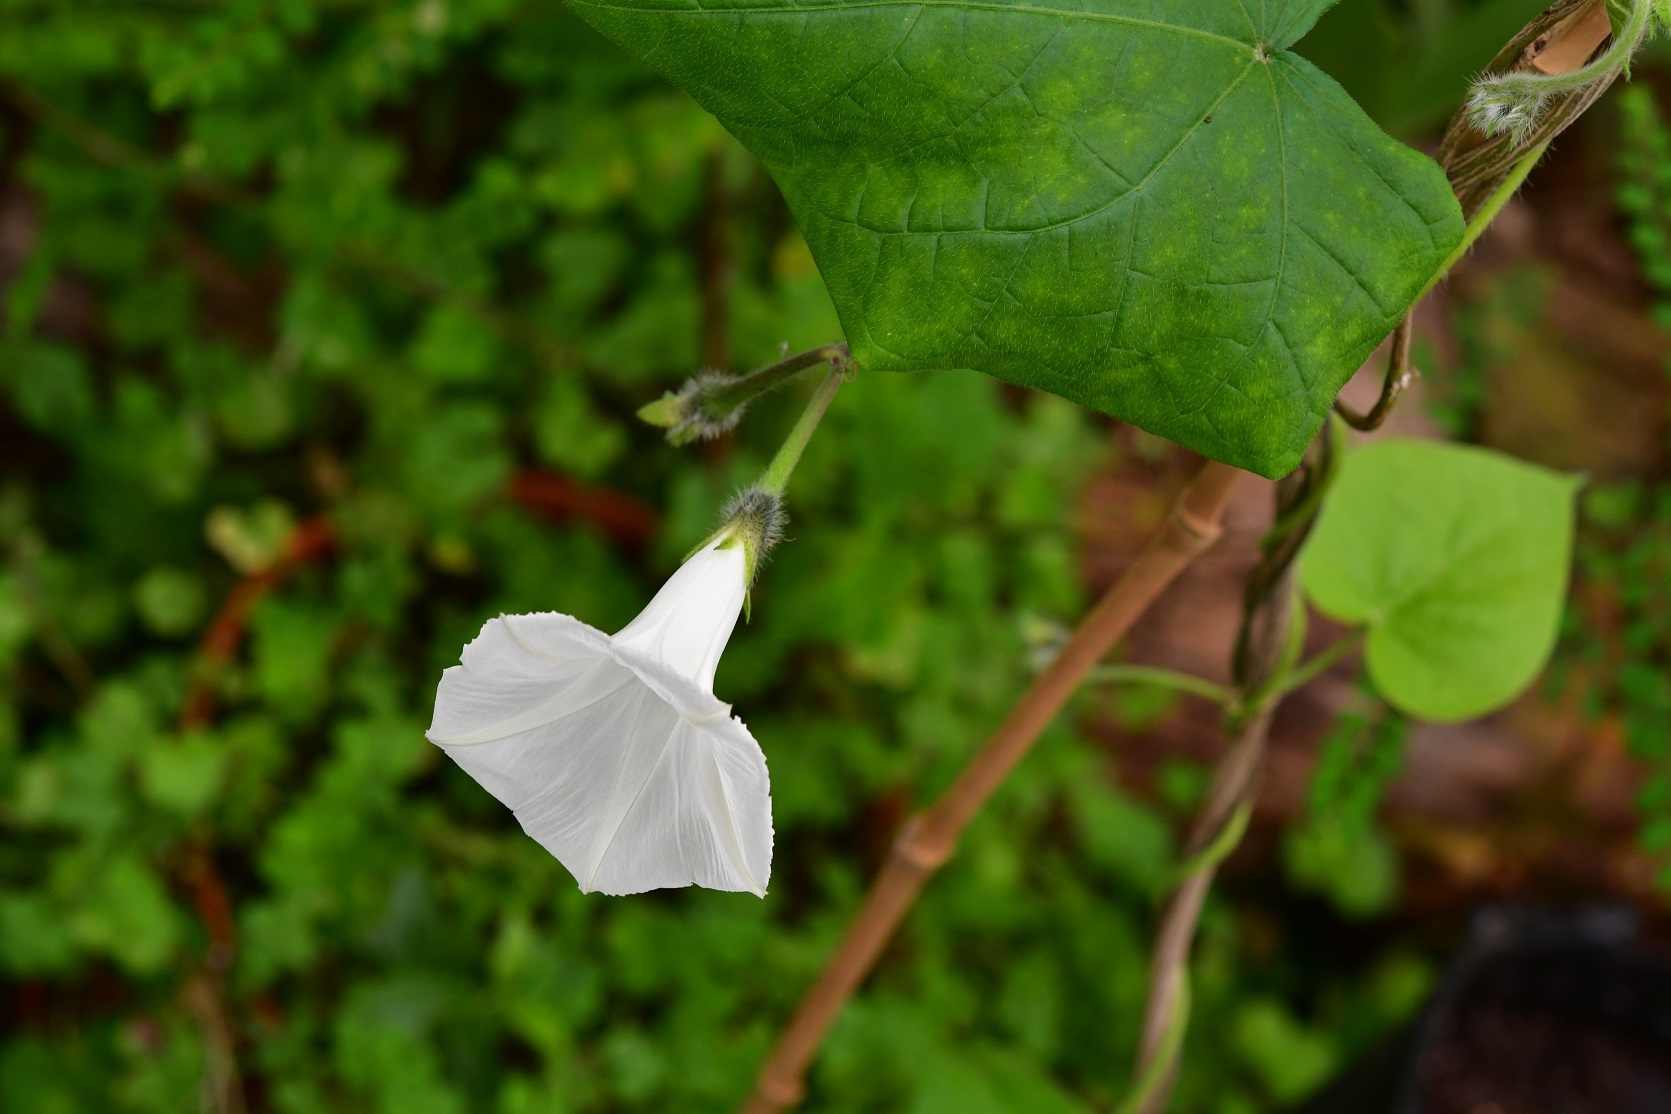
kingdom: Plantae
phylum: Tracheophyta
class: Magnoliopsida
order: Solanales
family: Convolvulaceae
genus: Ipomoea
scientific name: Ipomoea purpurea
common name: Common morning-glory
